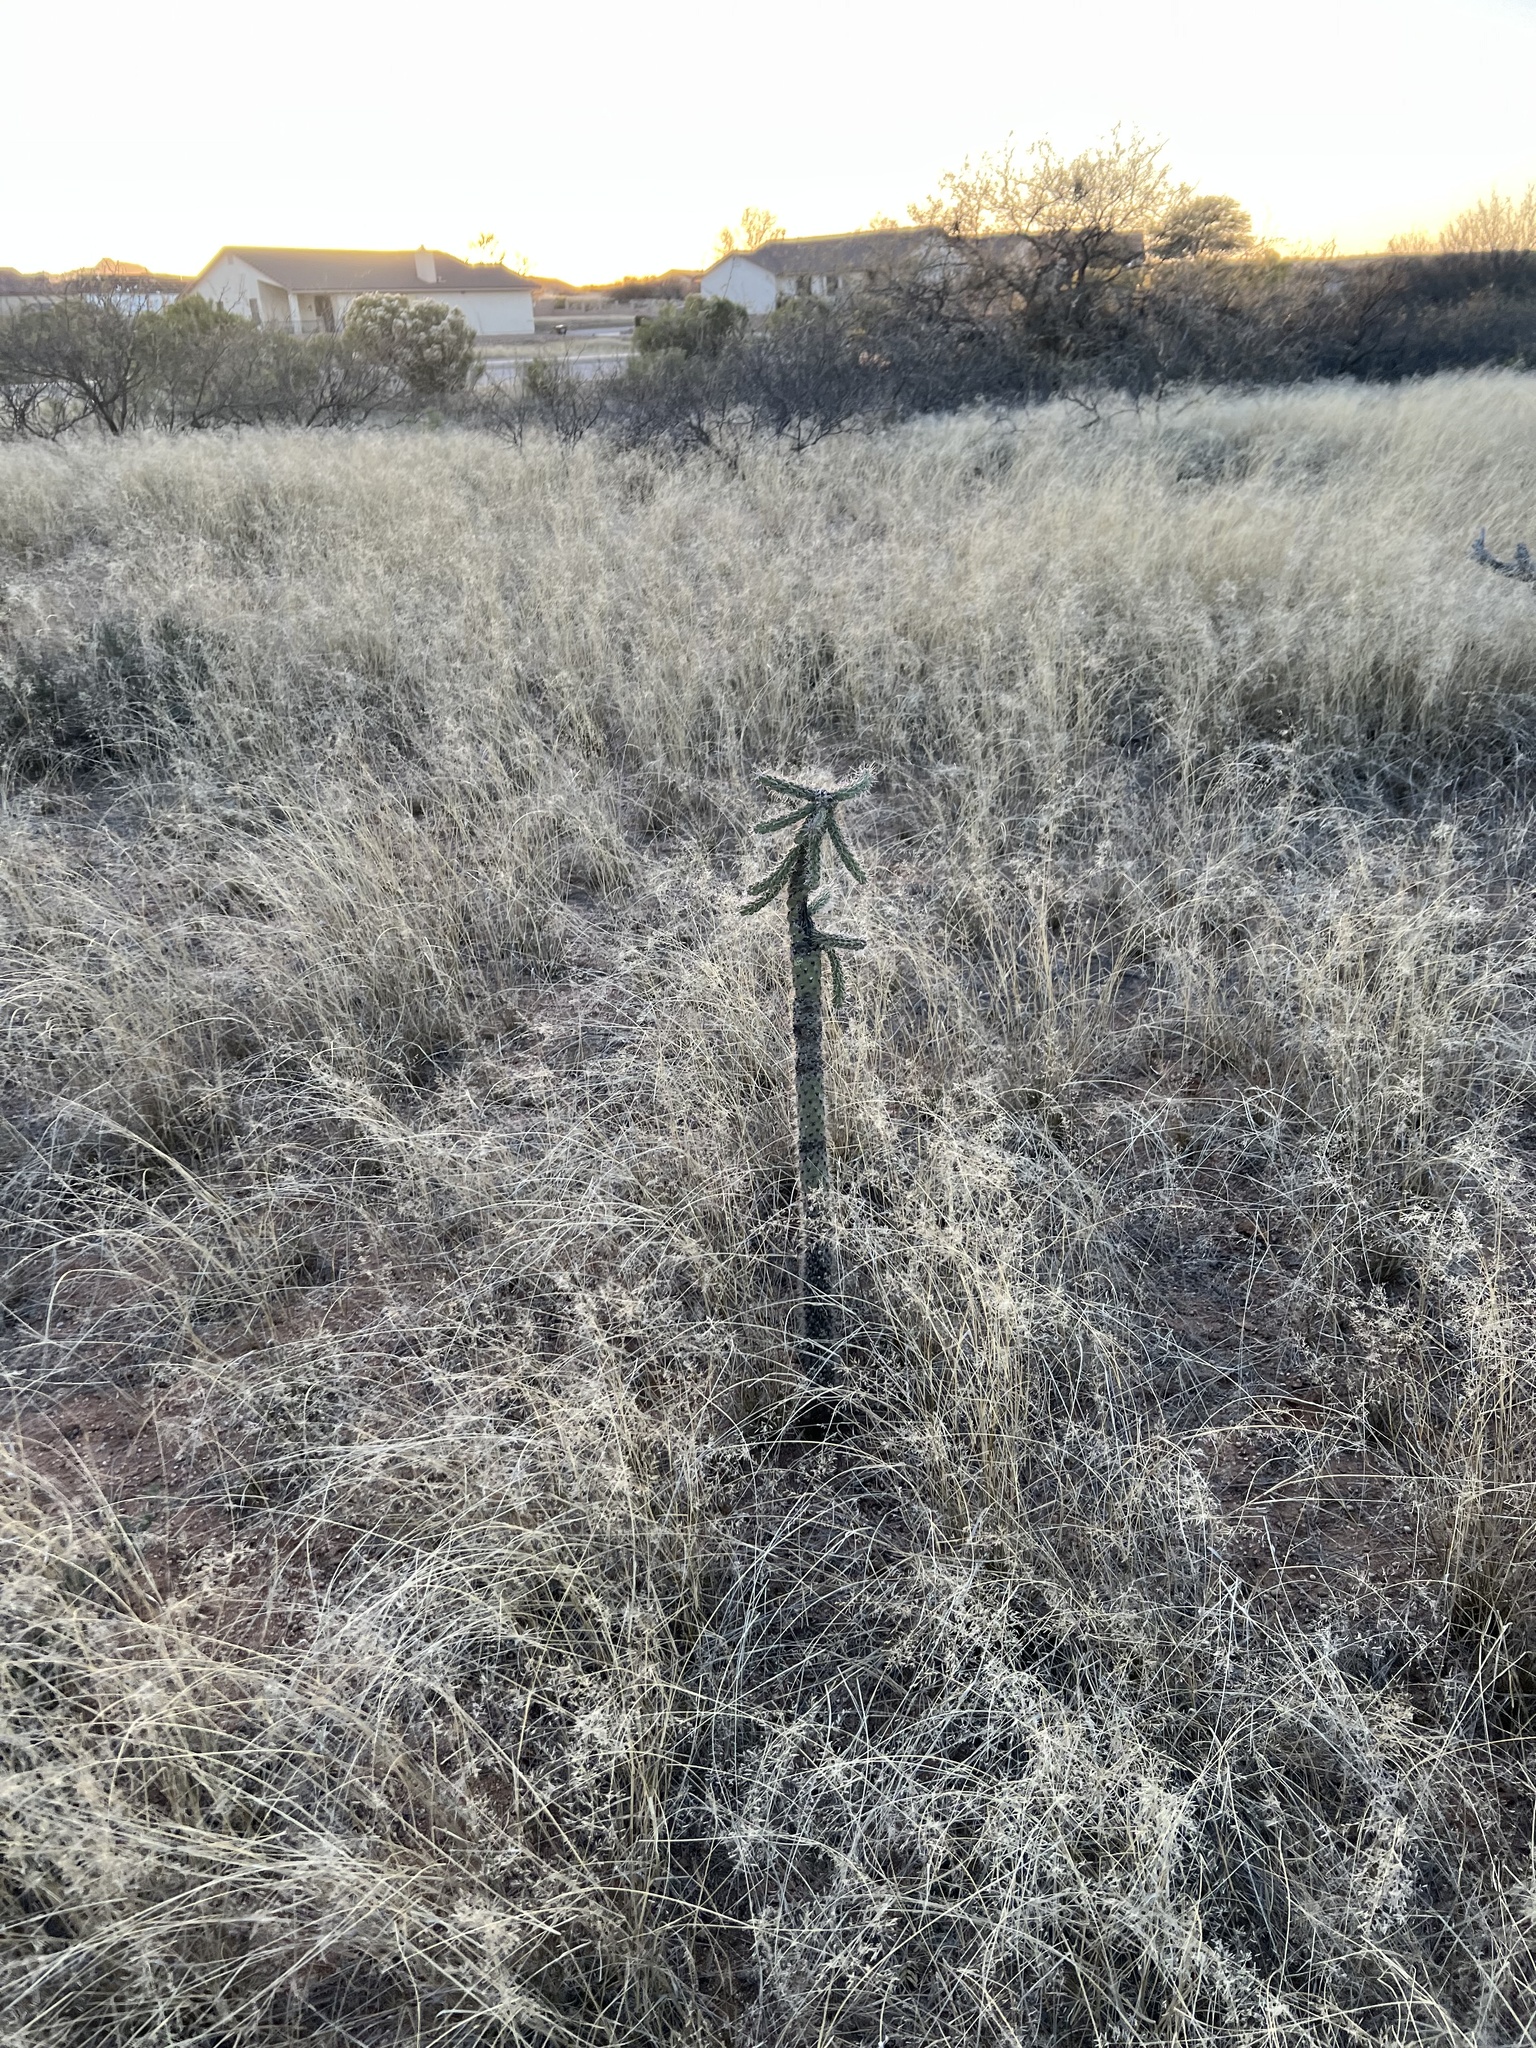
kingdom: Plantae
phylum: Tracheophyta
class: Magnoliopsida
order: Caryophyllales
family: Cactaceae
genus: Cylindropuntia
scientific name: Cylindropuntia imbricata
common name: Candelabrum cactus
